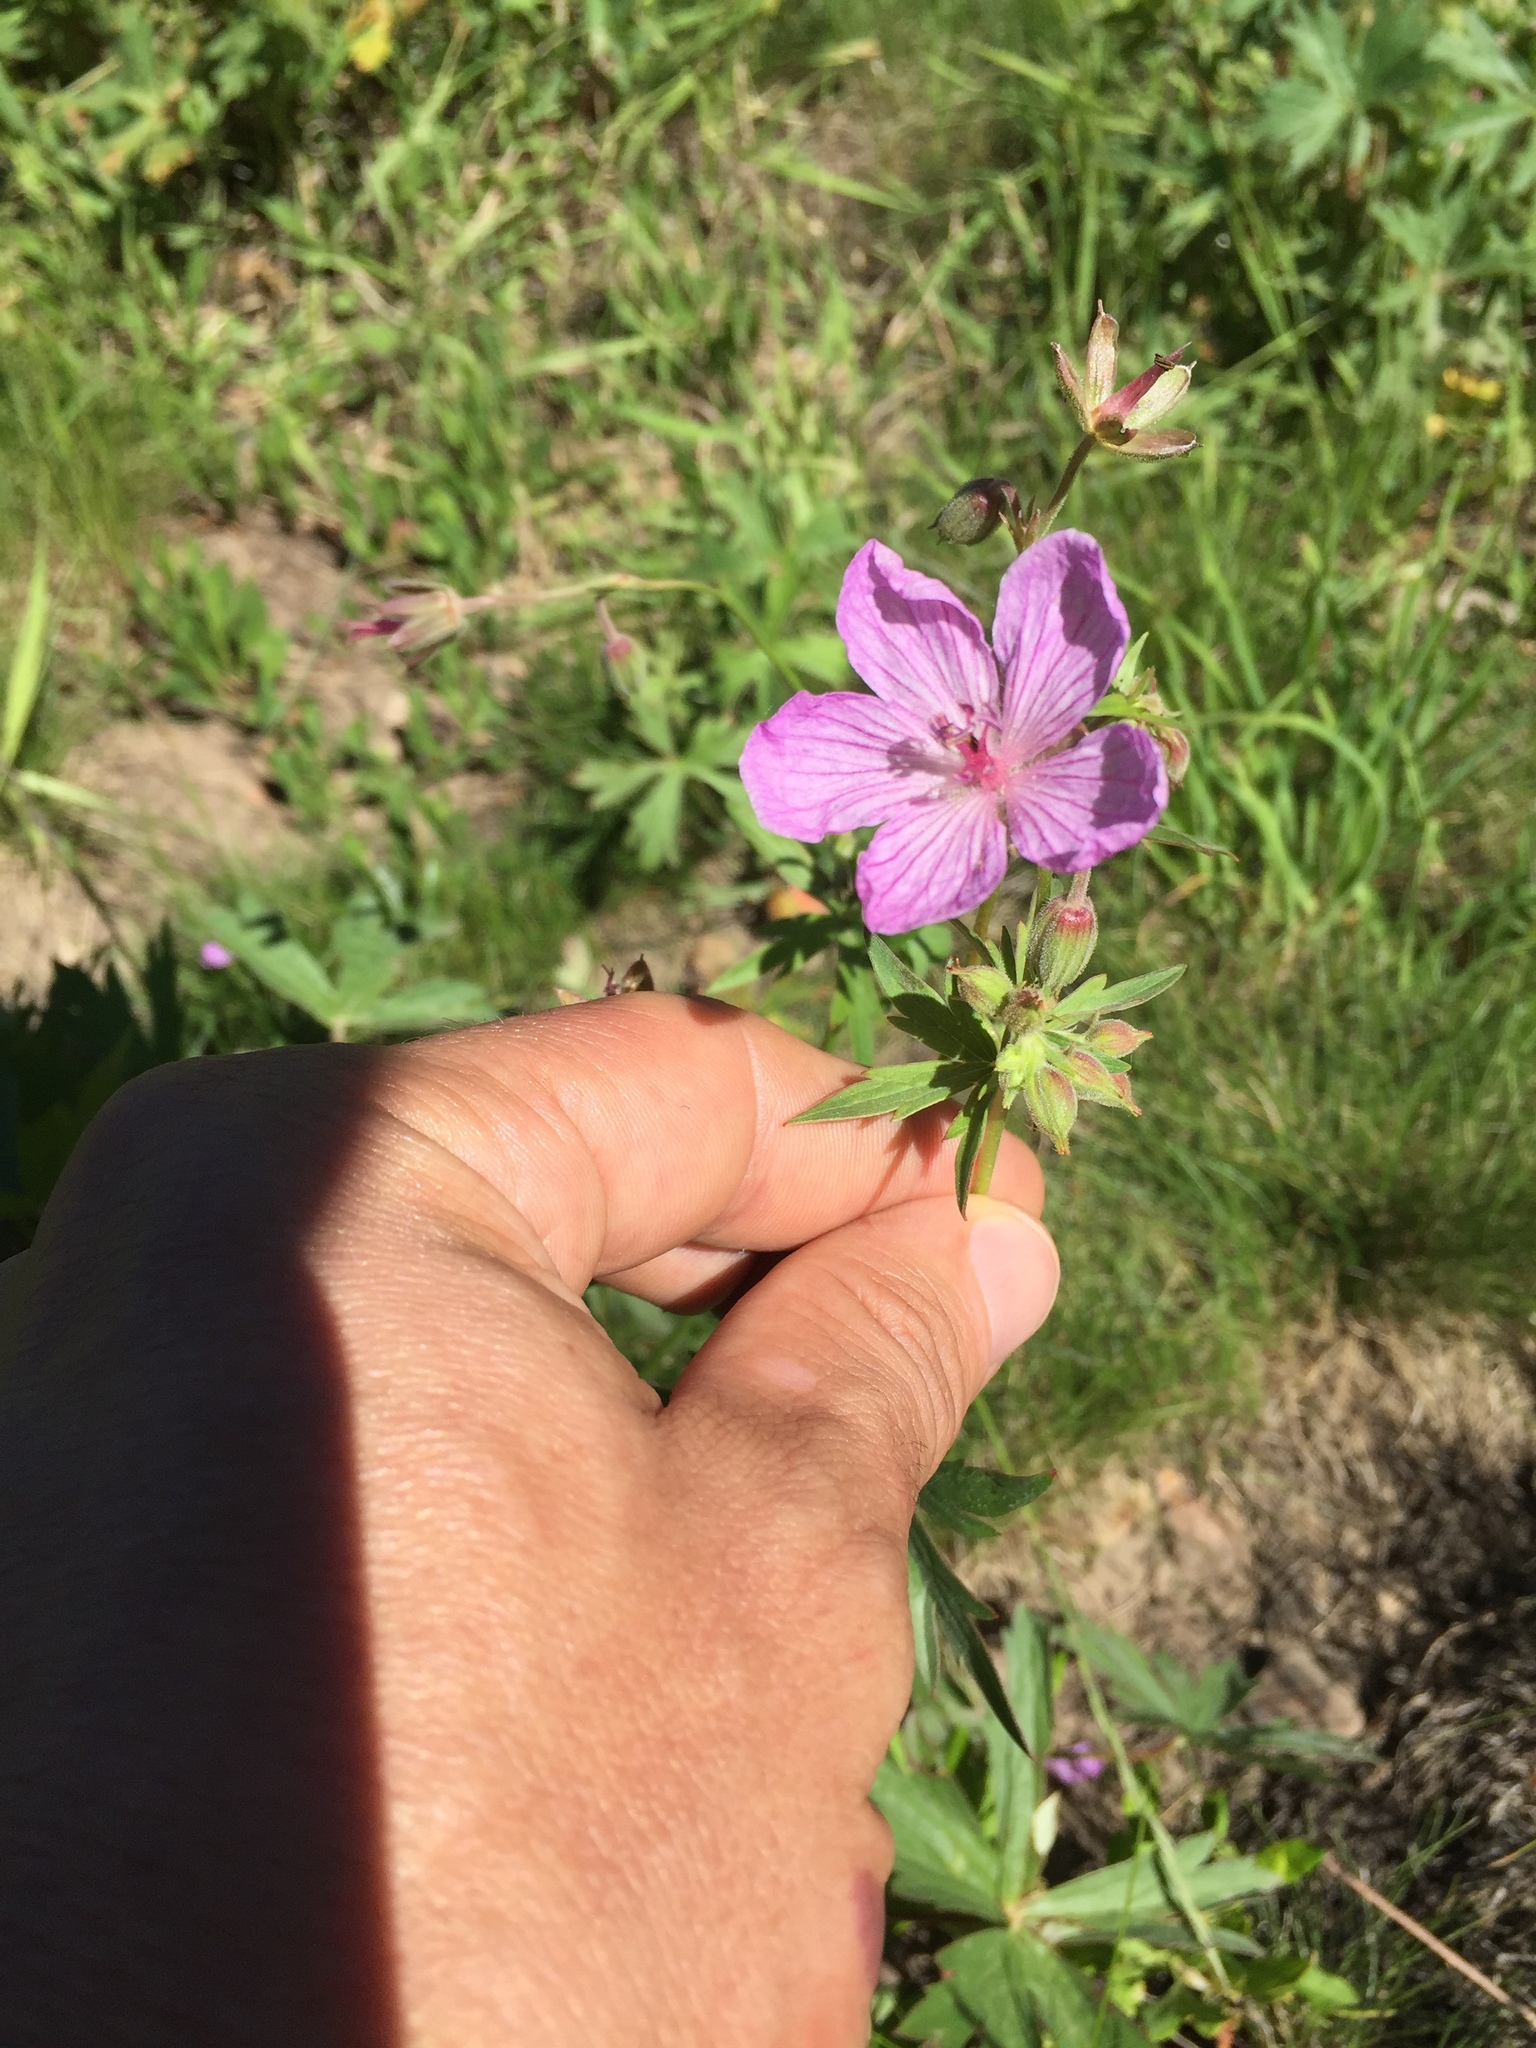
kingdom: Plantae
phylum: Tracheophyta
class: Magnoliopsida
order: Geraniales
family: Geraniaceae
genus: Geranium
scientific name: Geranium viscosissimum
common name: Purple geranium
